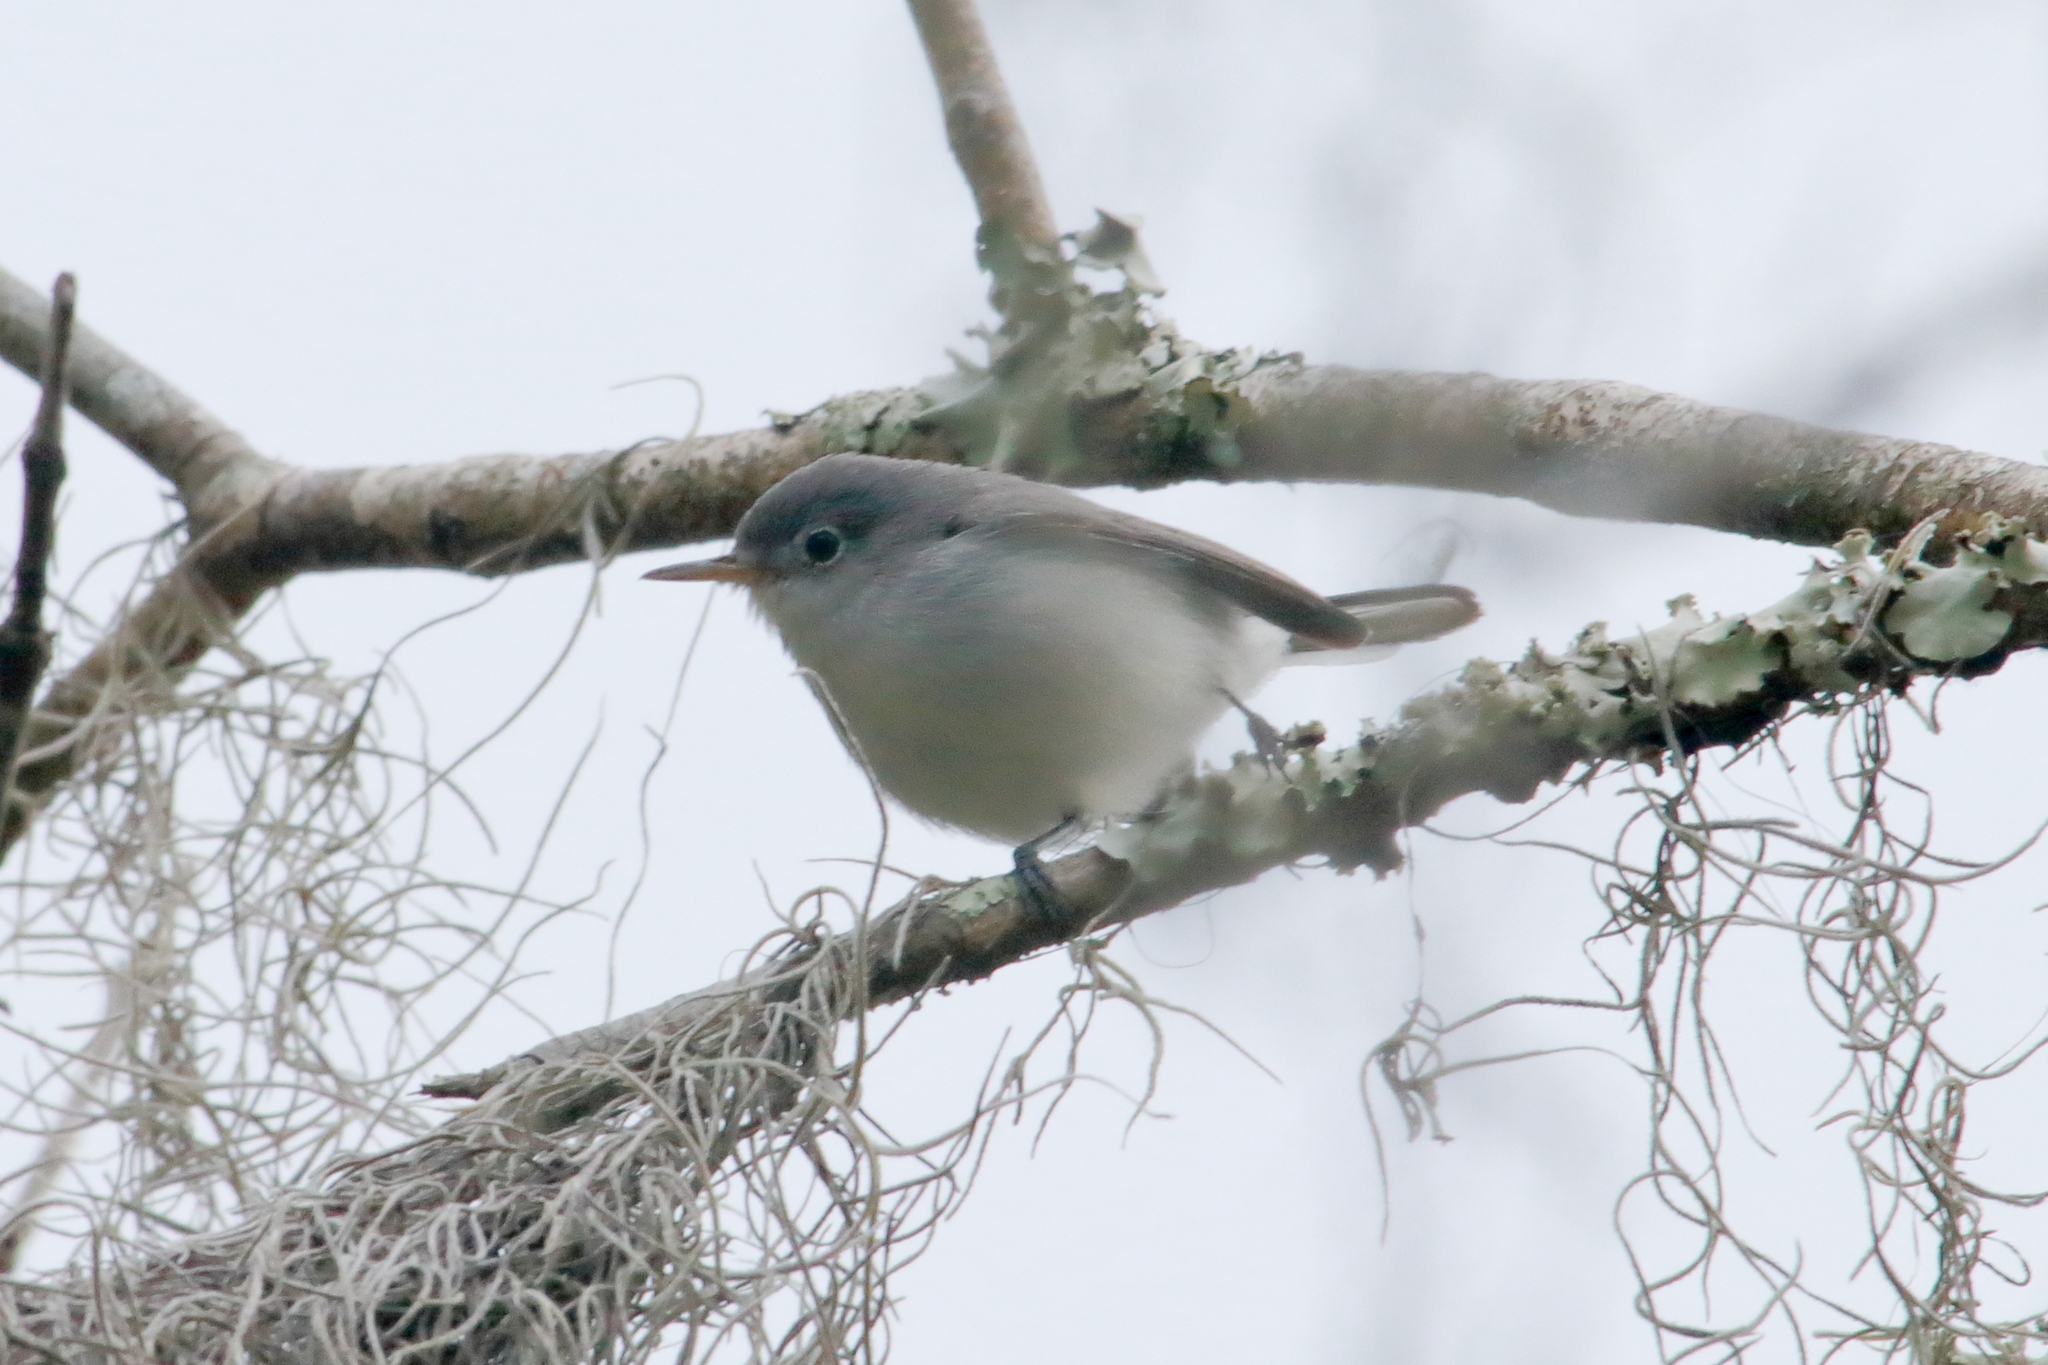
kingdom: Animalia
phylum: Chordata
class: Aves
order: Passeriformes
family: Polioptilidae
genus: Polioptila
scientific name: Polioptila caerulea
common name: Blue-gray gnatcatcher
